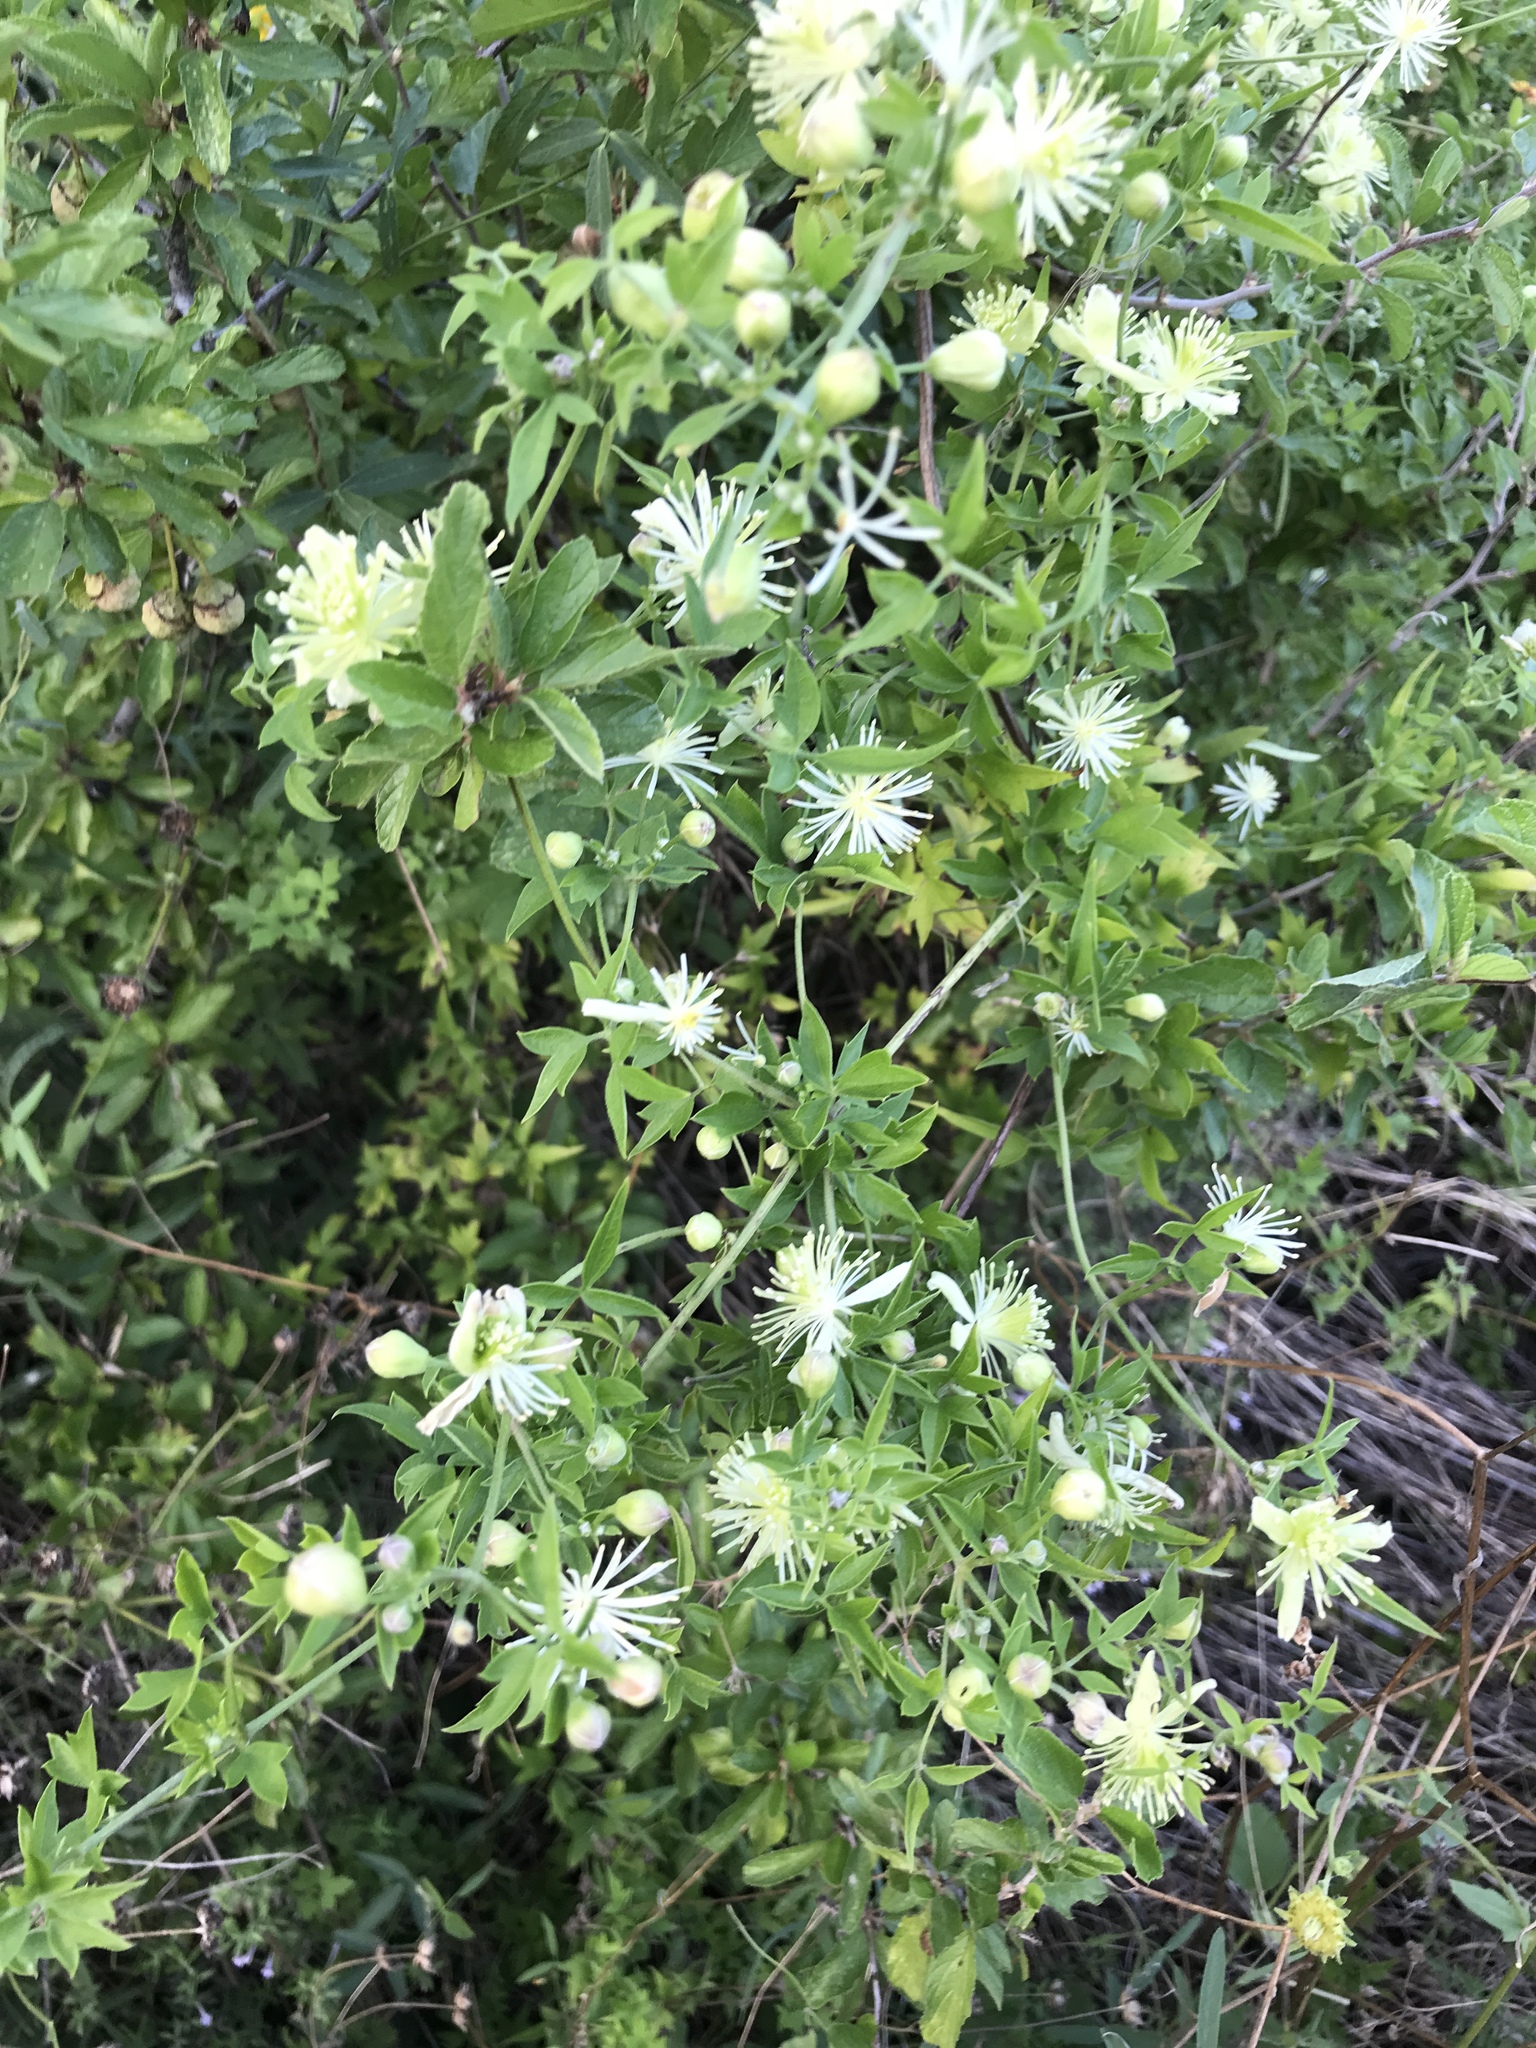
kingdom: Plantae
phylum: Tracheophyta
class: Magnoliopsida
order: Ranunculales
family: Ranunculaceae
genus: Clematis
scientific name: Clematis drummondii
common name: Texas virgin's bower
